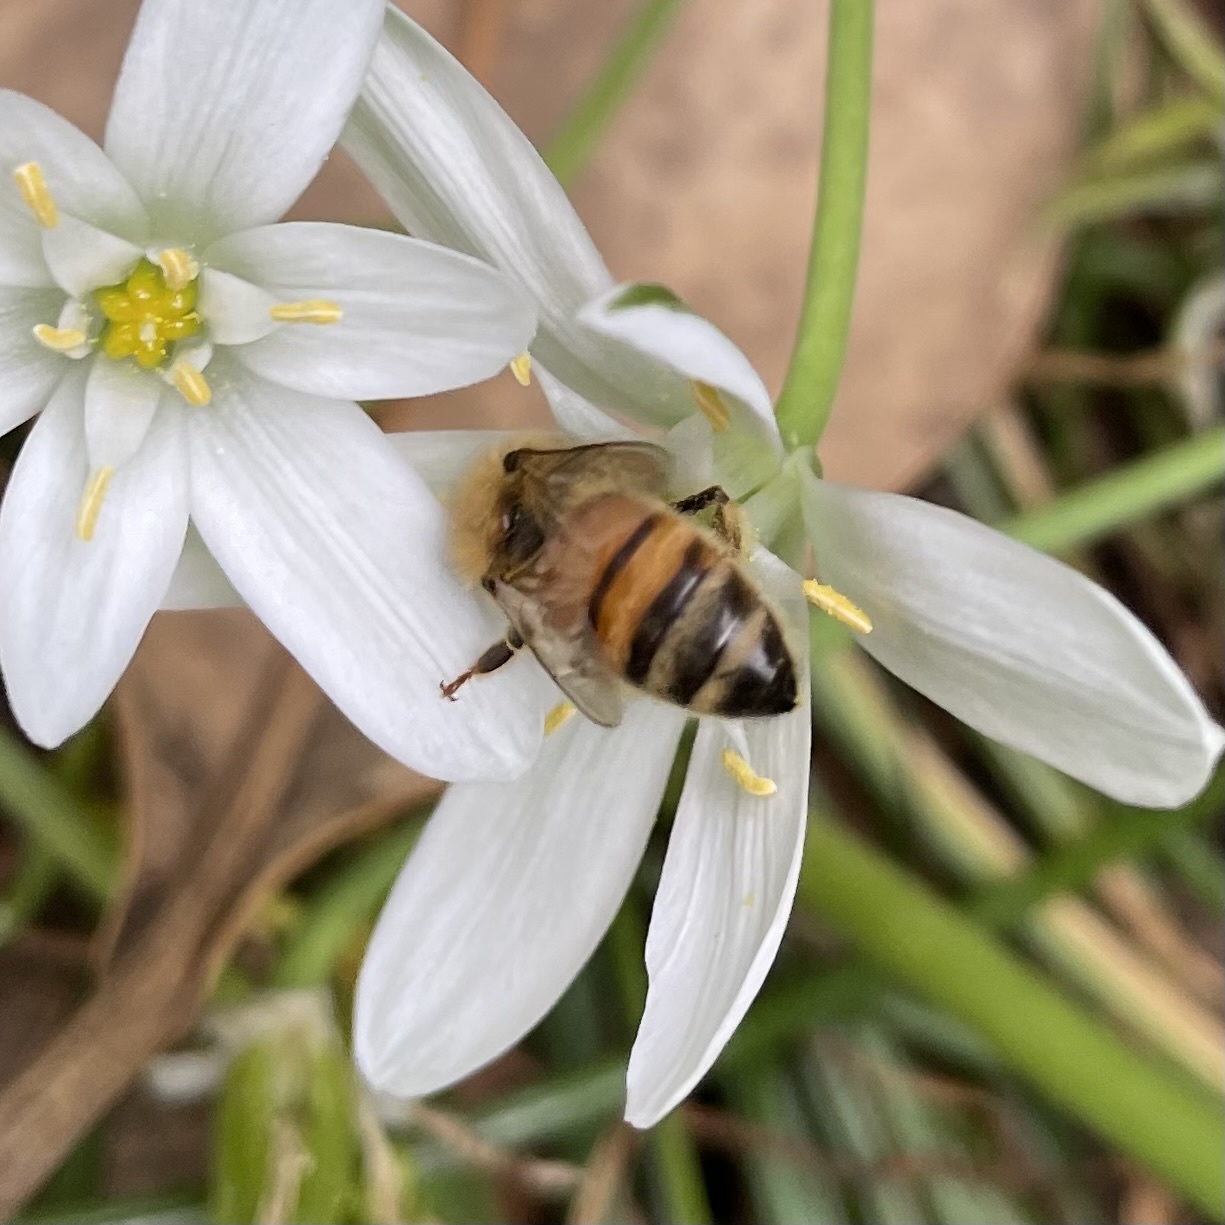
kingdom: Animalia
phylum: Arthropoda
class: Insecta
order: Hymenoptera
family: Apidae
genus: Apis
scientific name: Apis mellifera
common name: Honey bee
